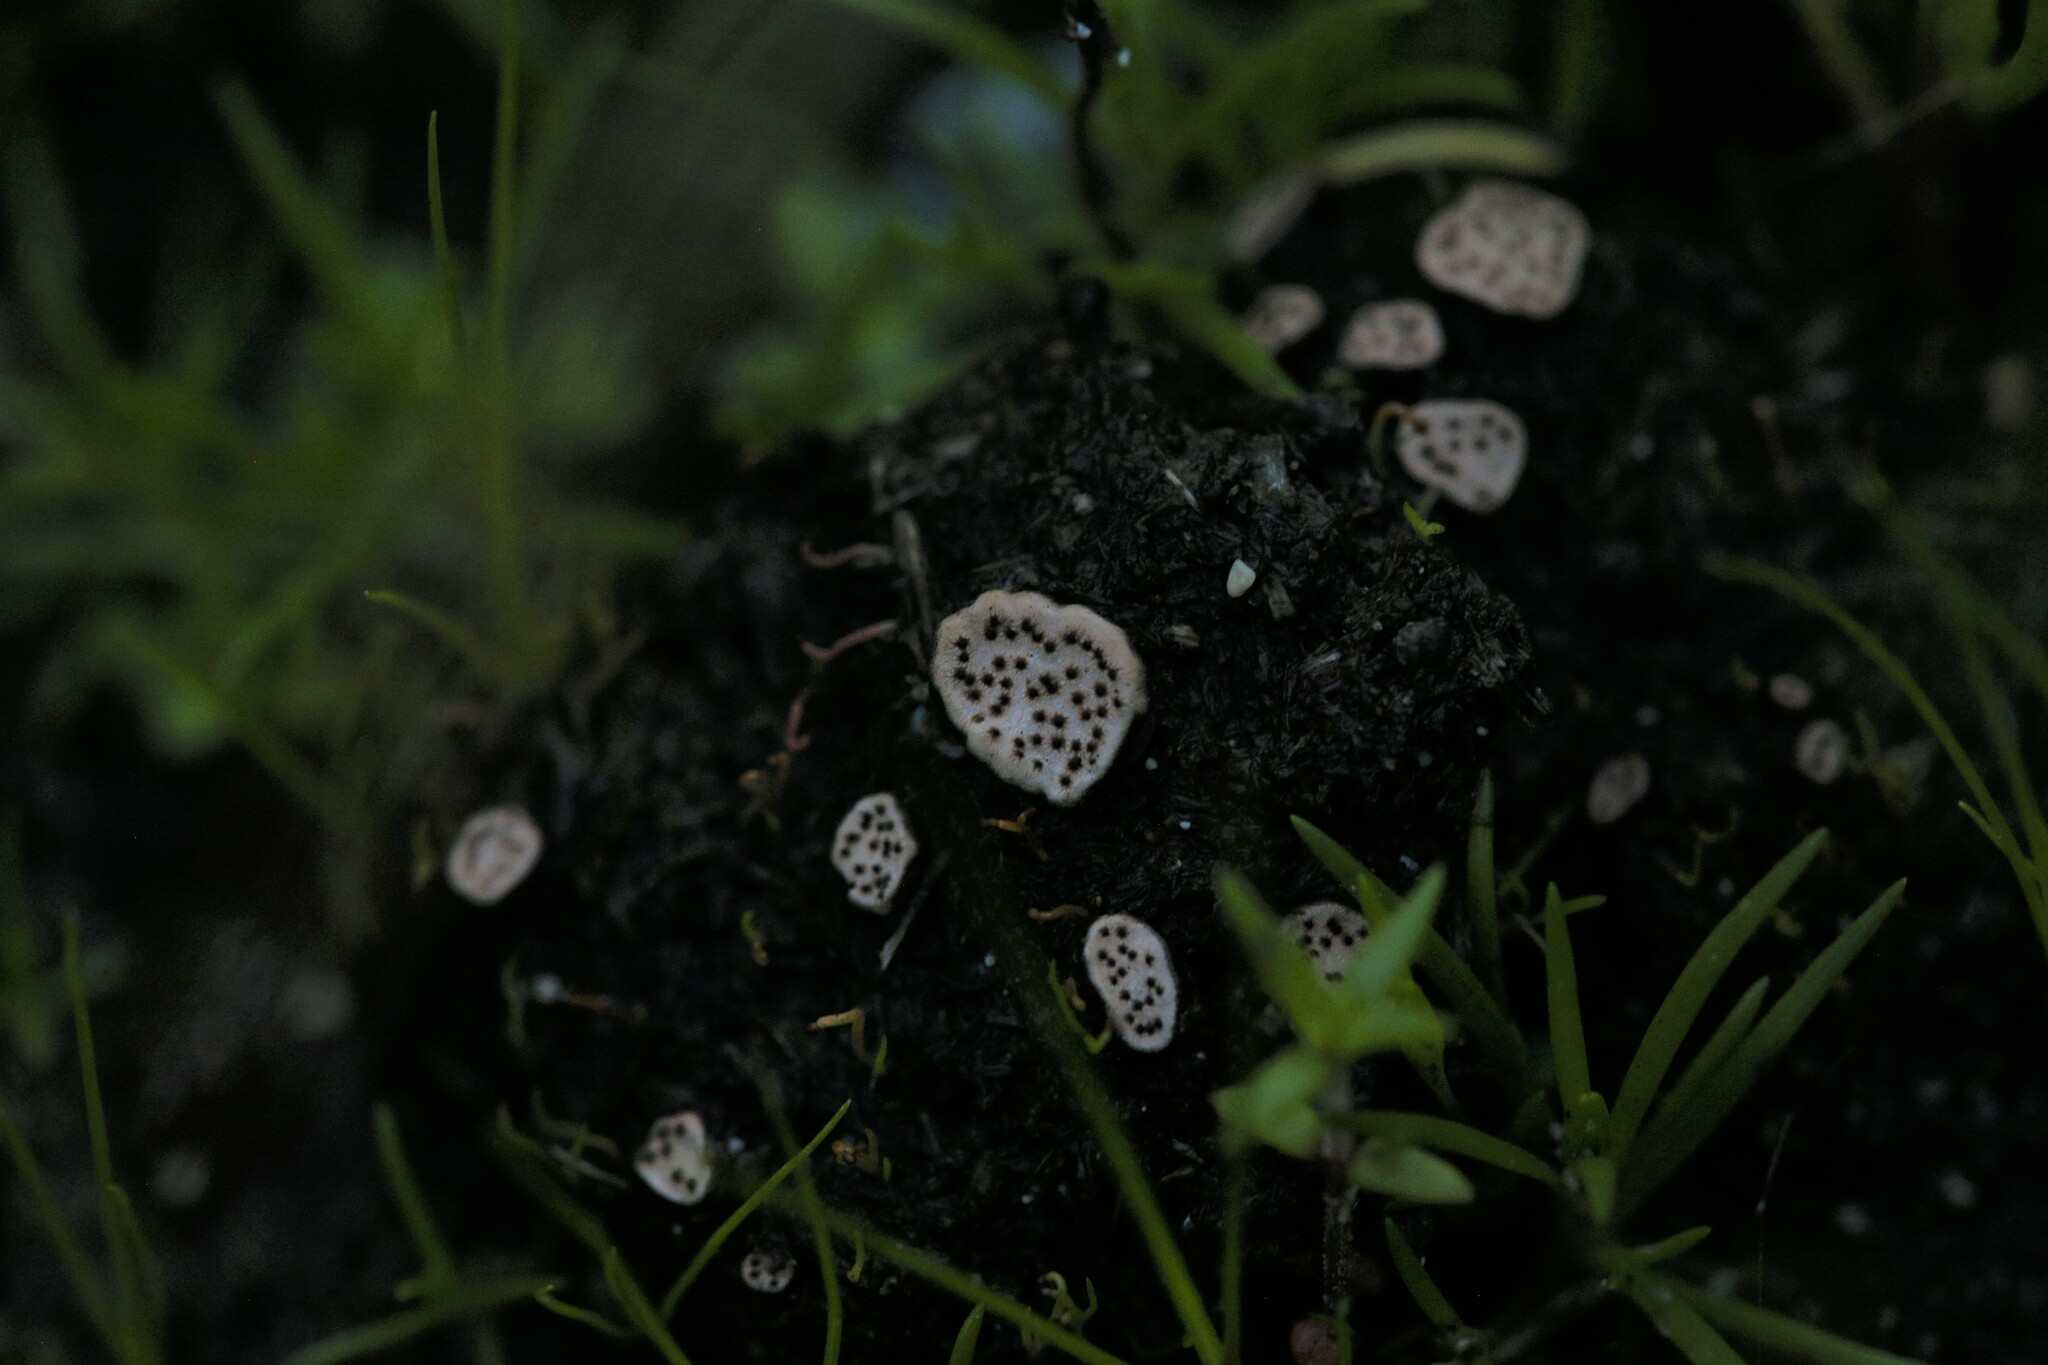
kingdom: Fungi
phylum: Ascomycota
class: Sordariomycetes
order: Xylariales
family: Xylariaceae
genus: Poronia
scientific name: Poronia erici
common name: Dung button
